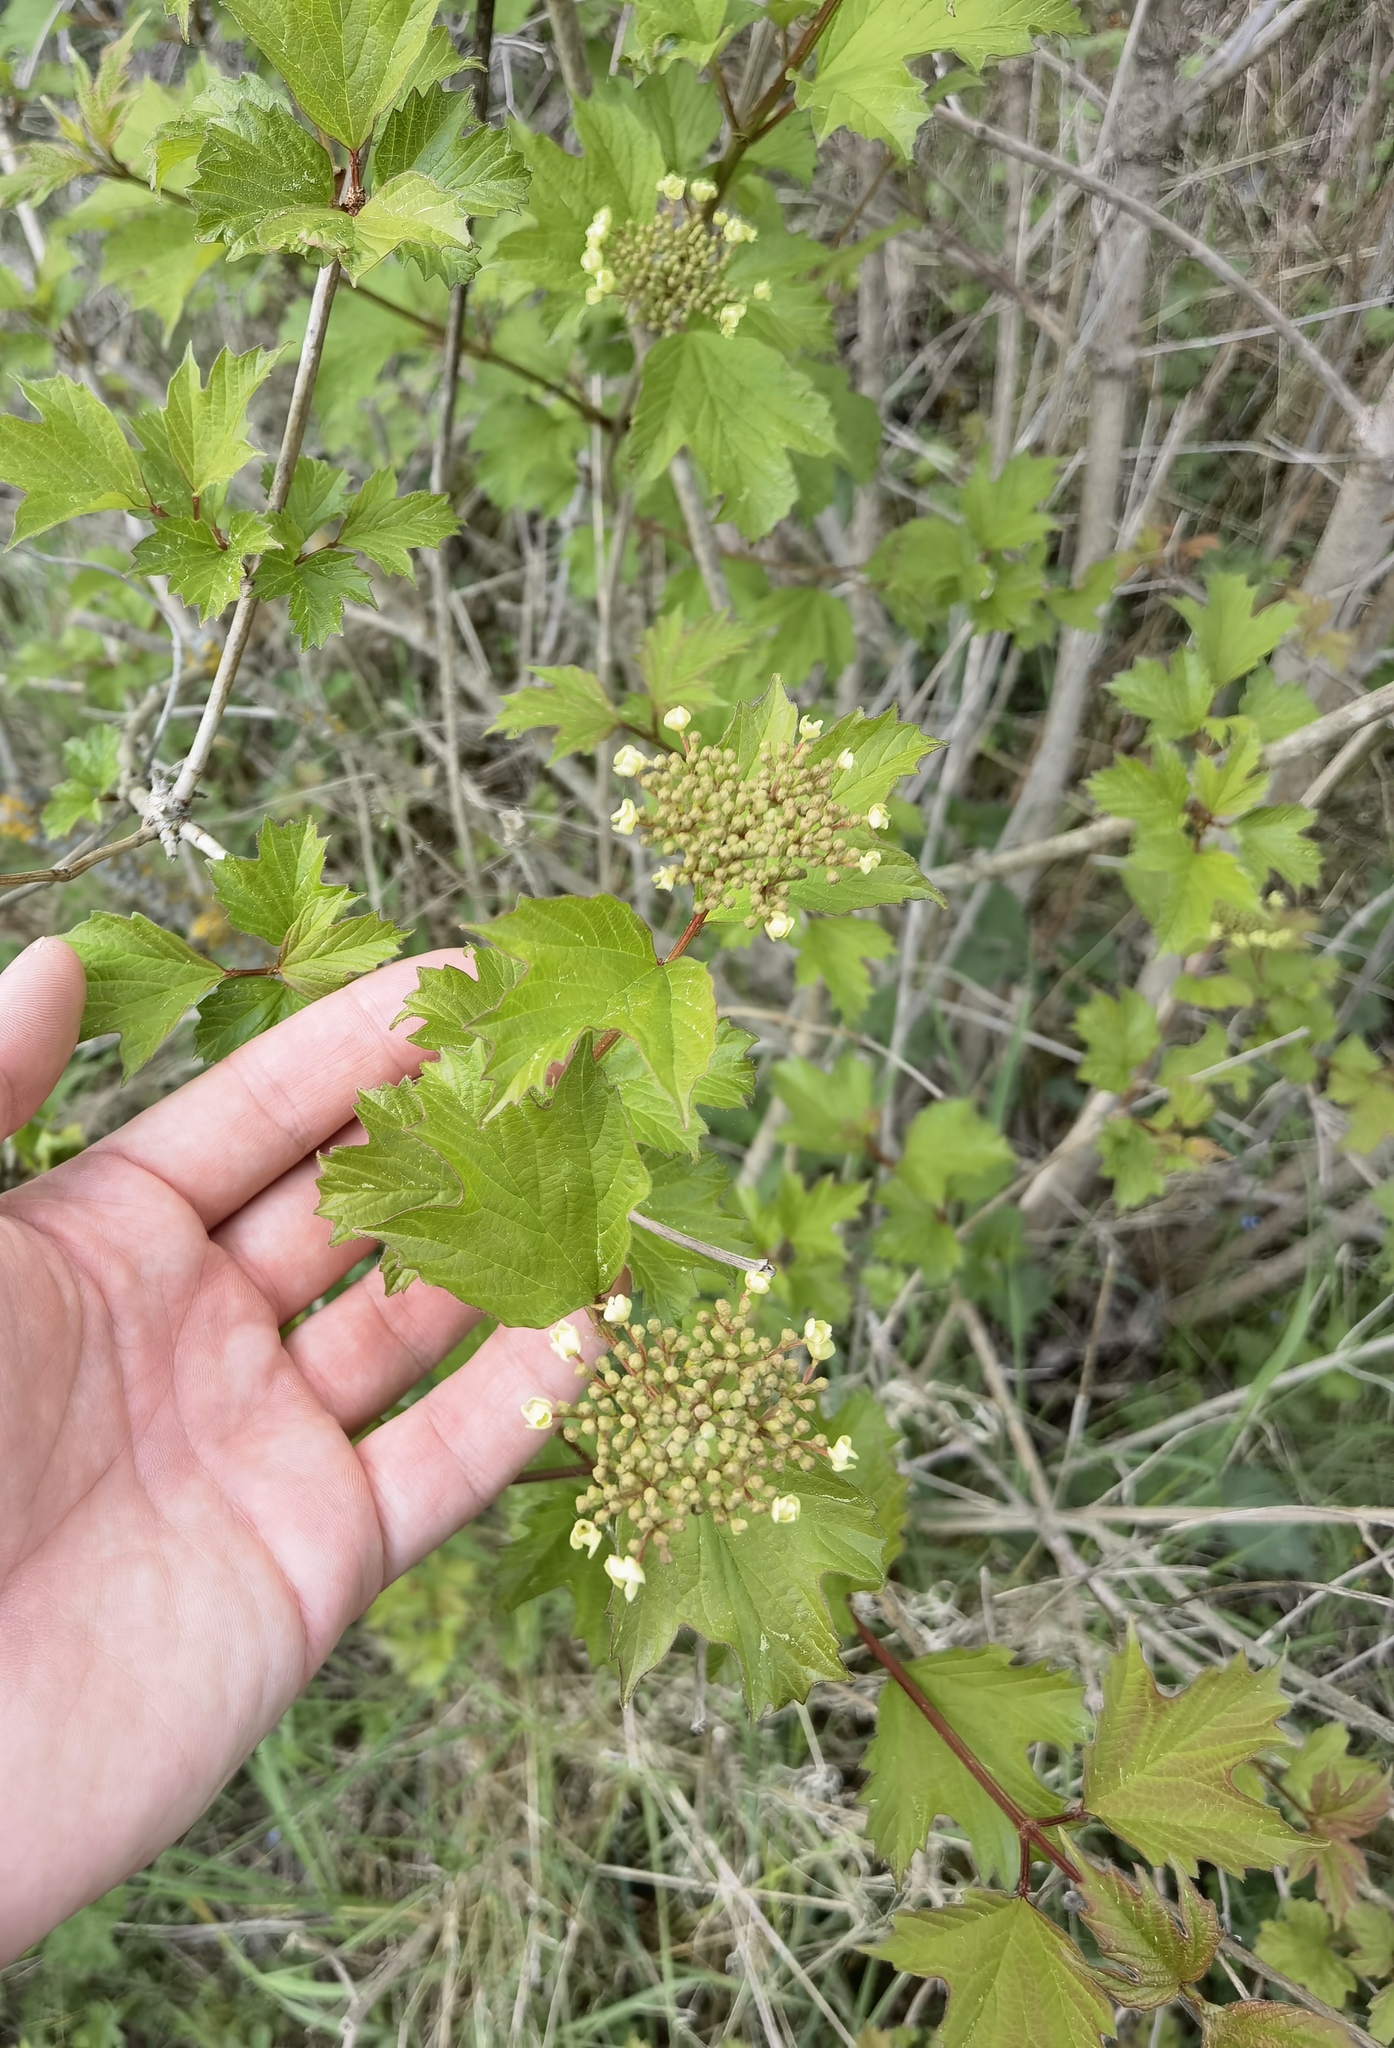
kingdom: Plantae
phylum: Tracheophyta
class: Magnoliopsida
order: Dipsacales
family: Viburnaceae
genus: Viburnum
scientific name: Viburnum opulus
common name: Guelder-rose
